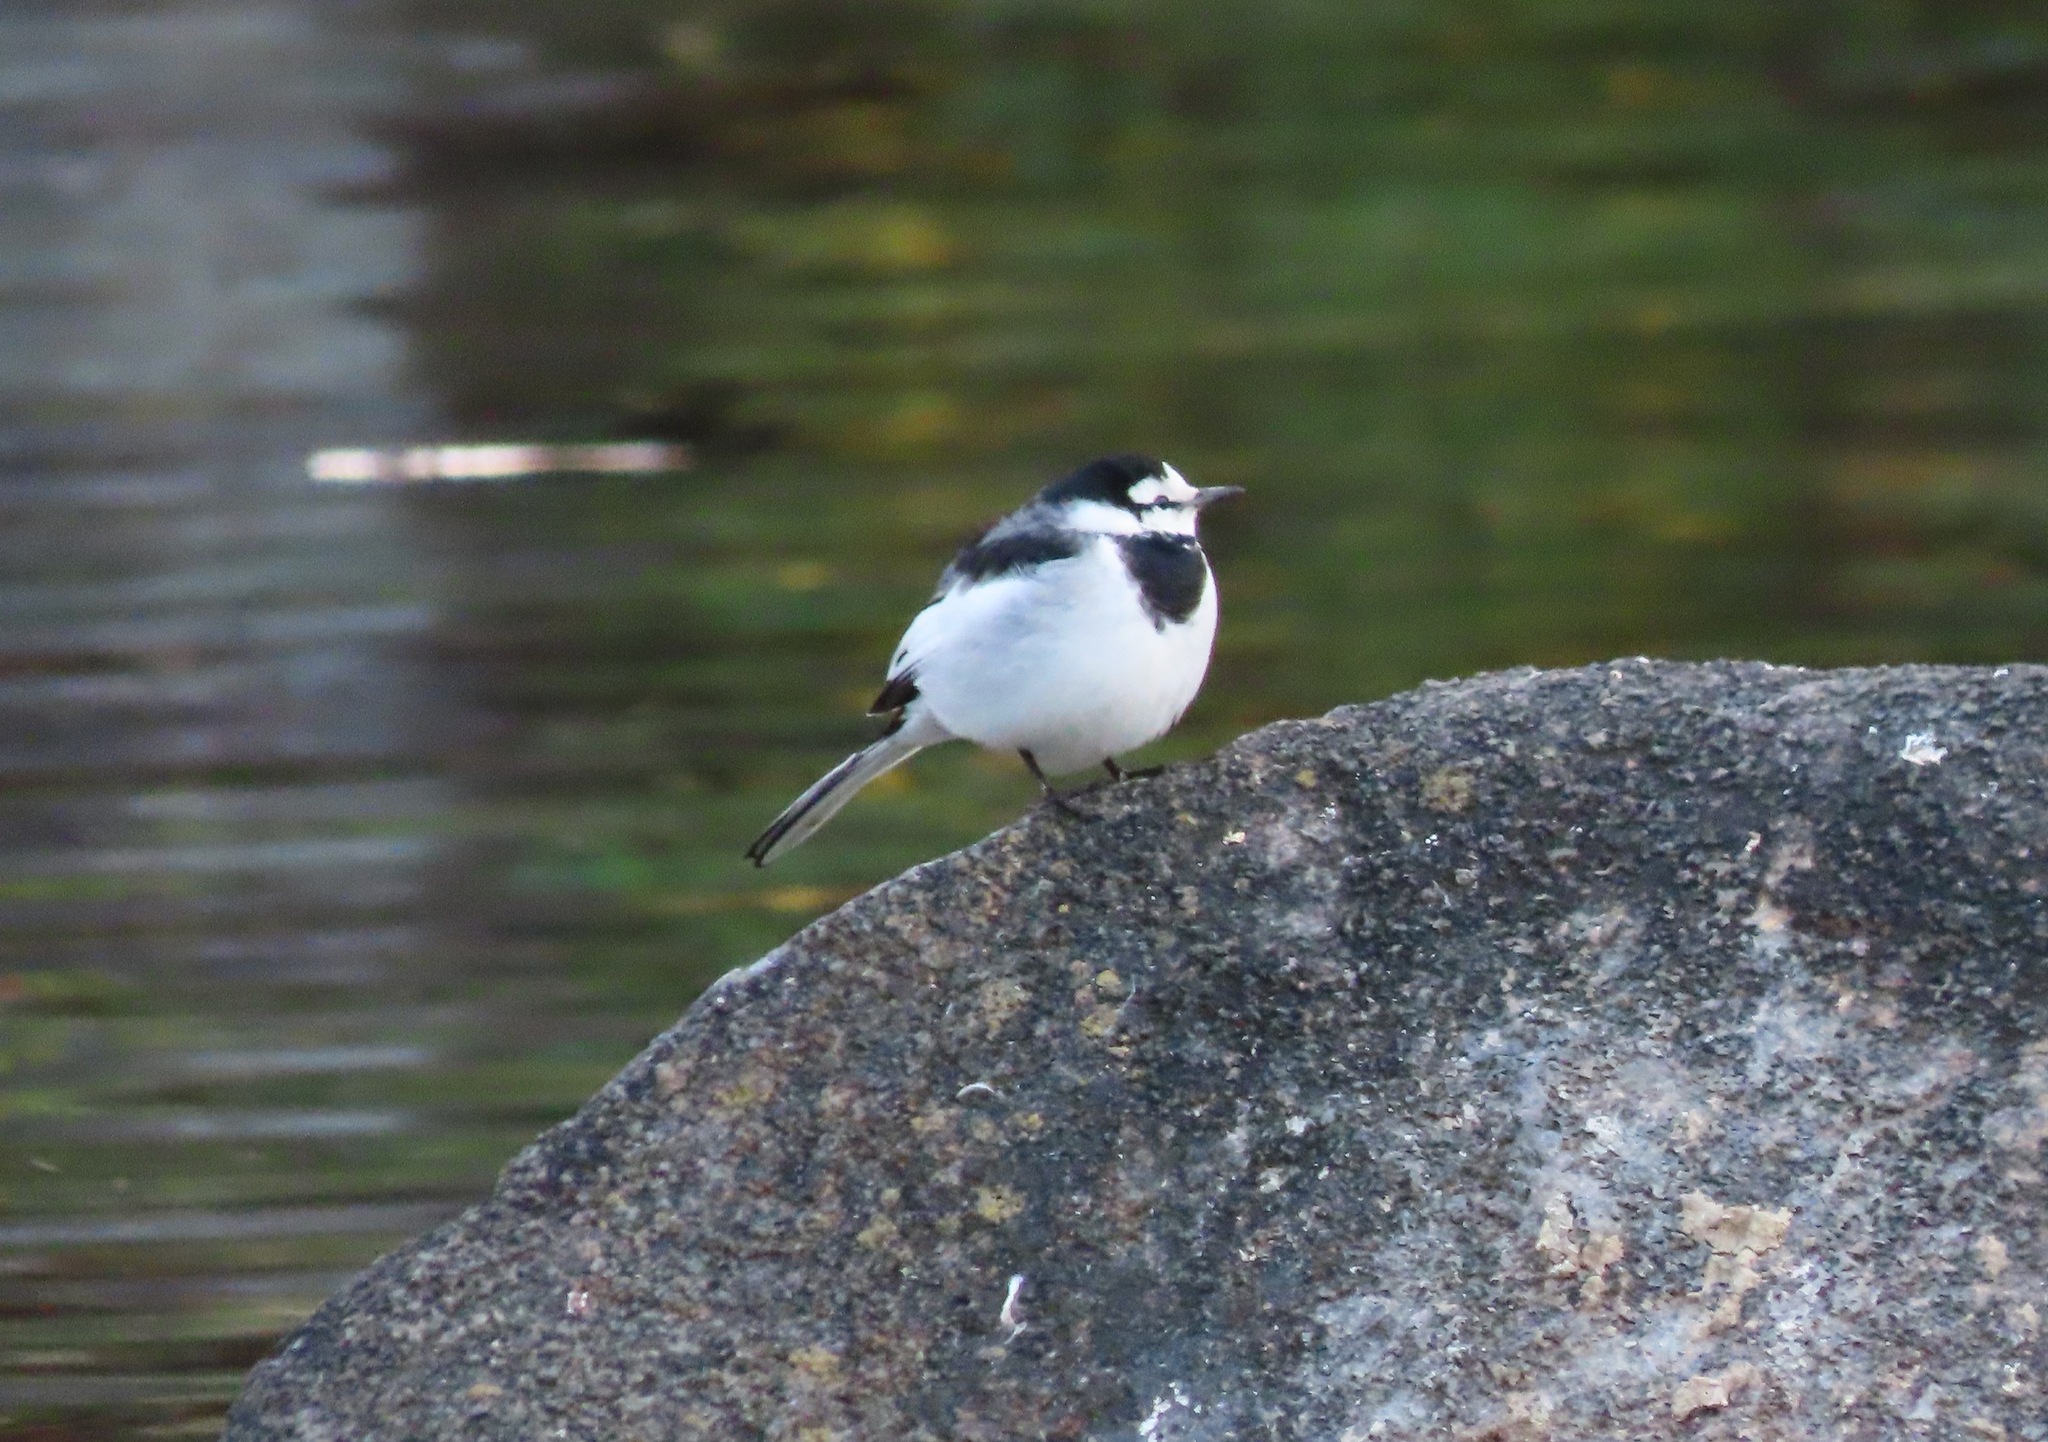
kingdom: Animalia
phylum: Chordata
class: Aves
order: Passeriformes
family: Motacillidae
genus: Motacilla
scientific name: Motacilla alba
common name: White wagtail
